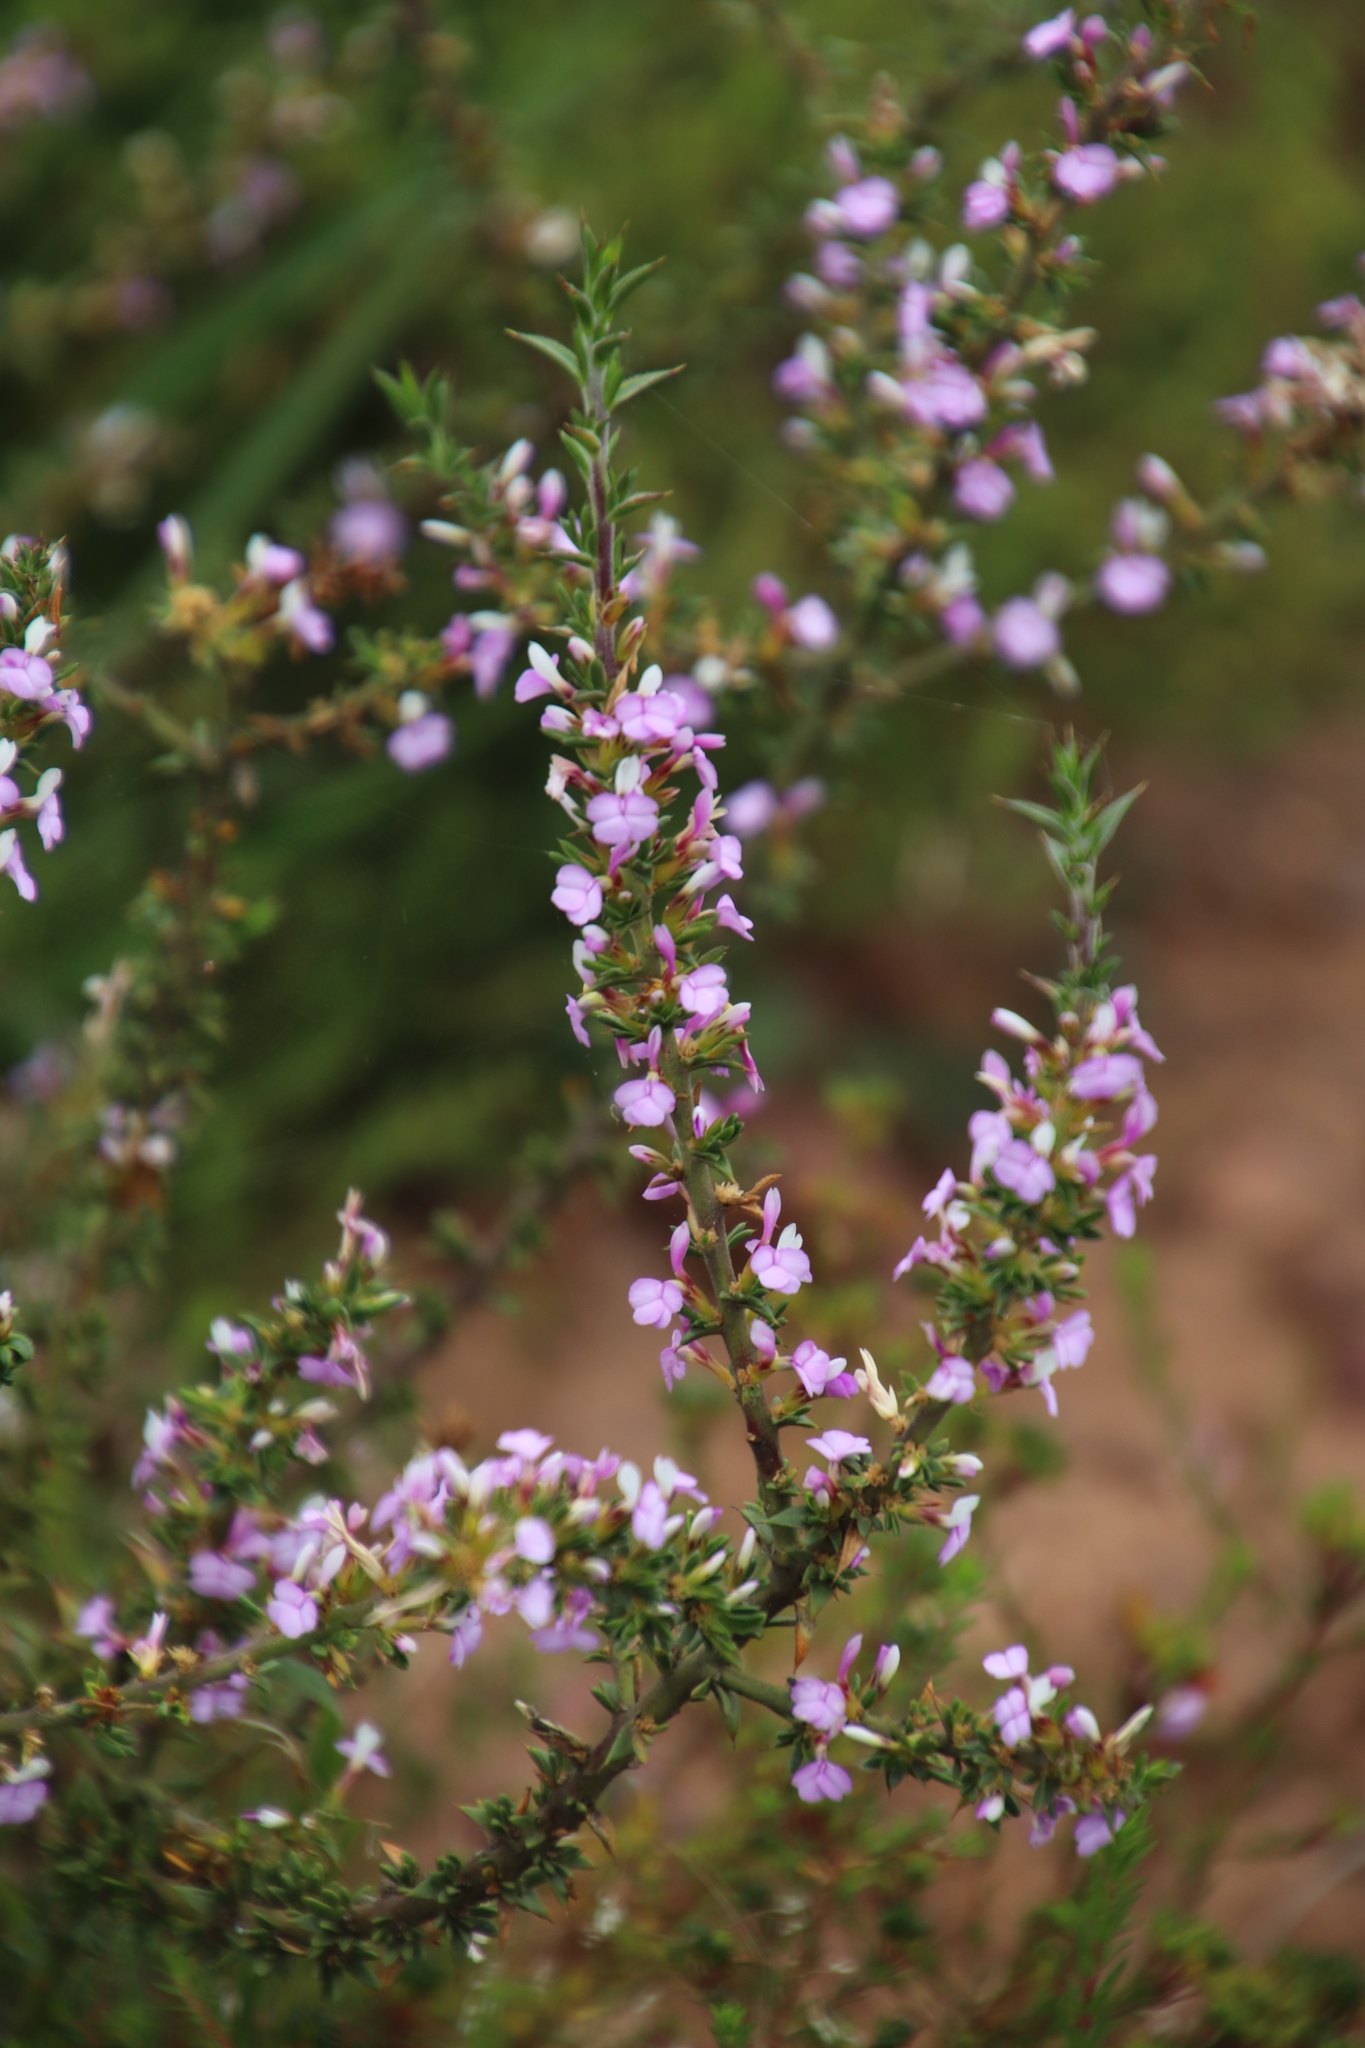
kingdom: Plantae
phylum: Tracheophyta
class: Magnoliopsida
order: Fabales
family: Polygalaceae
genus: Muraltia
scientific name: Muraltia heisteria
